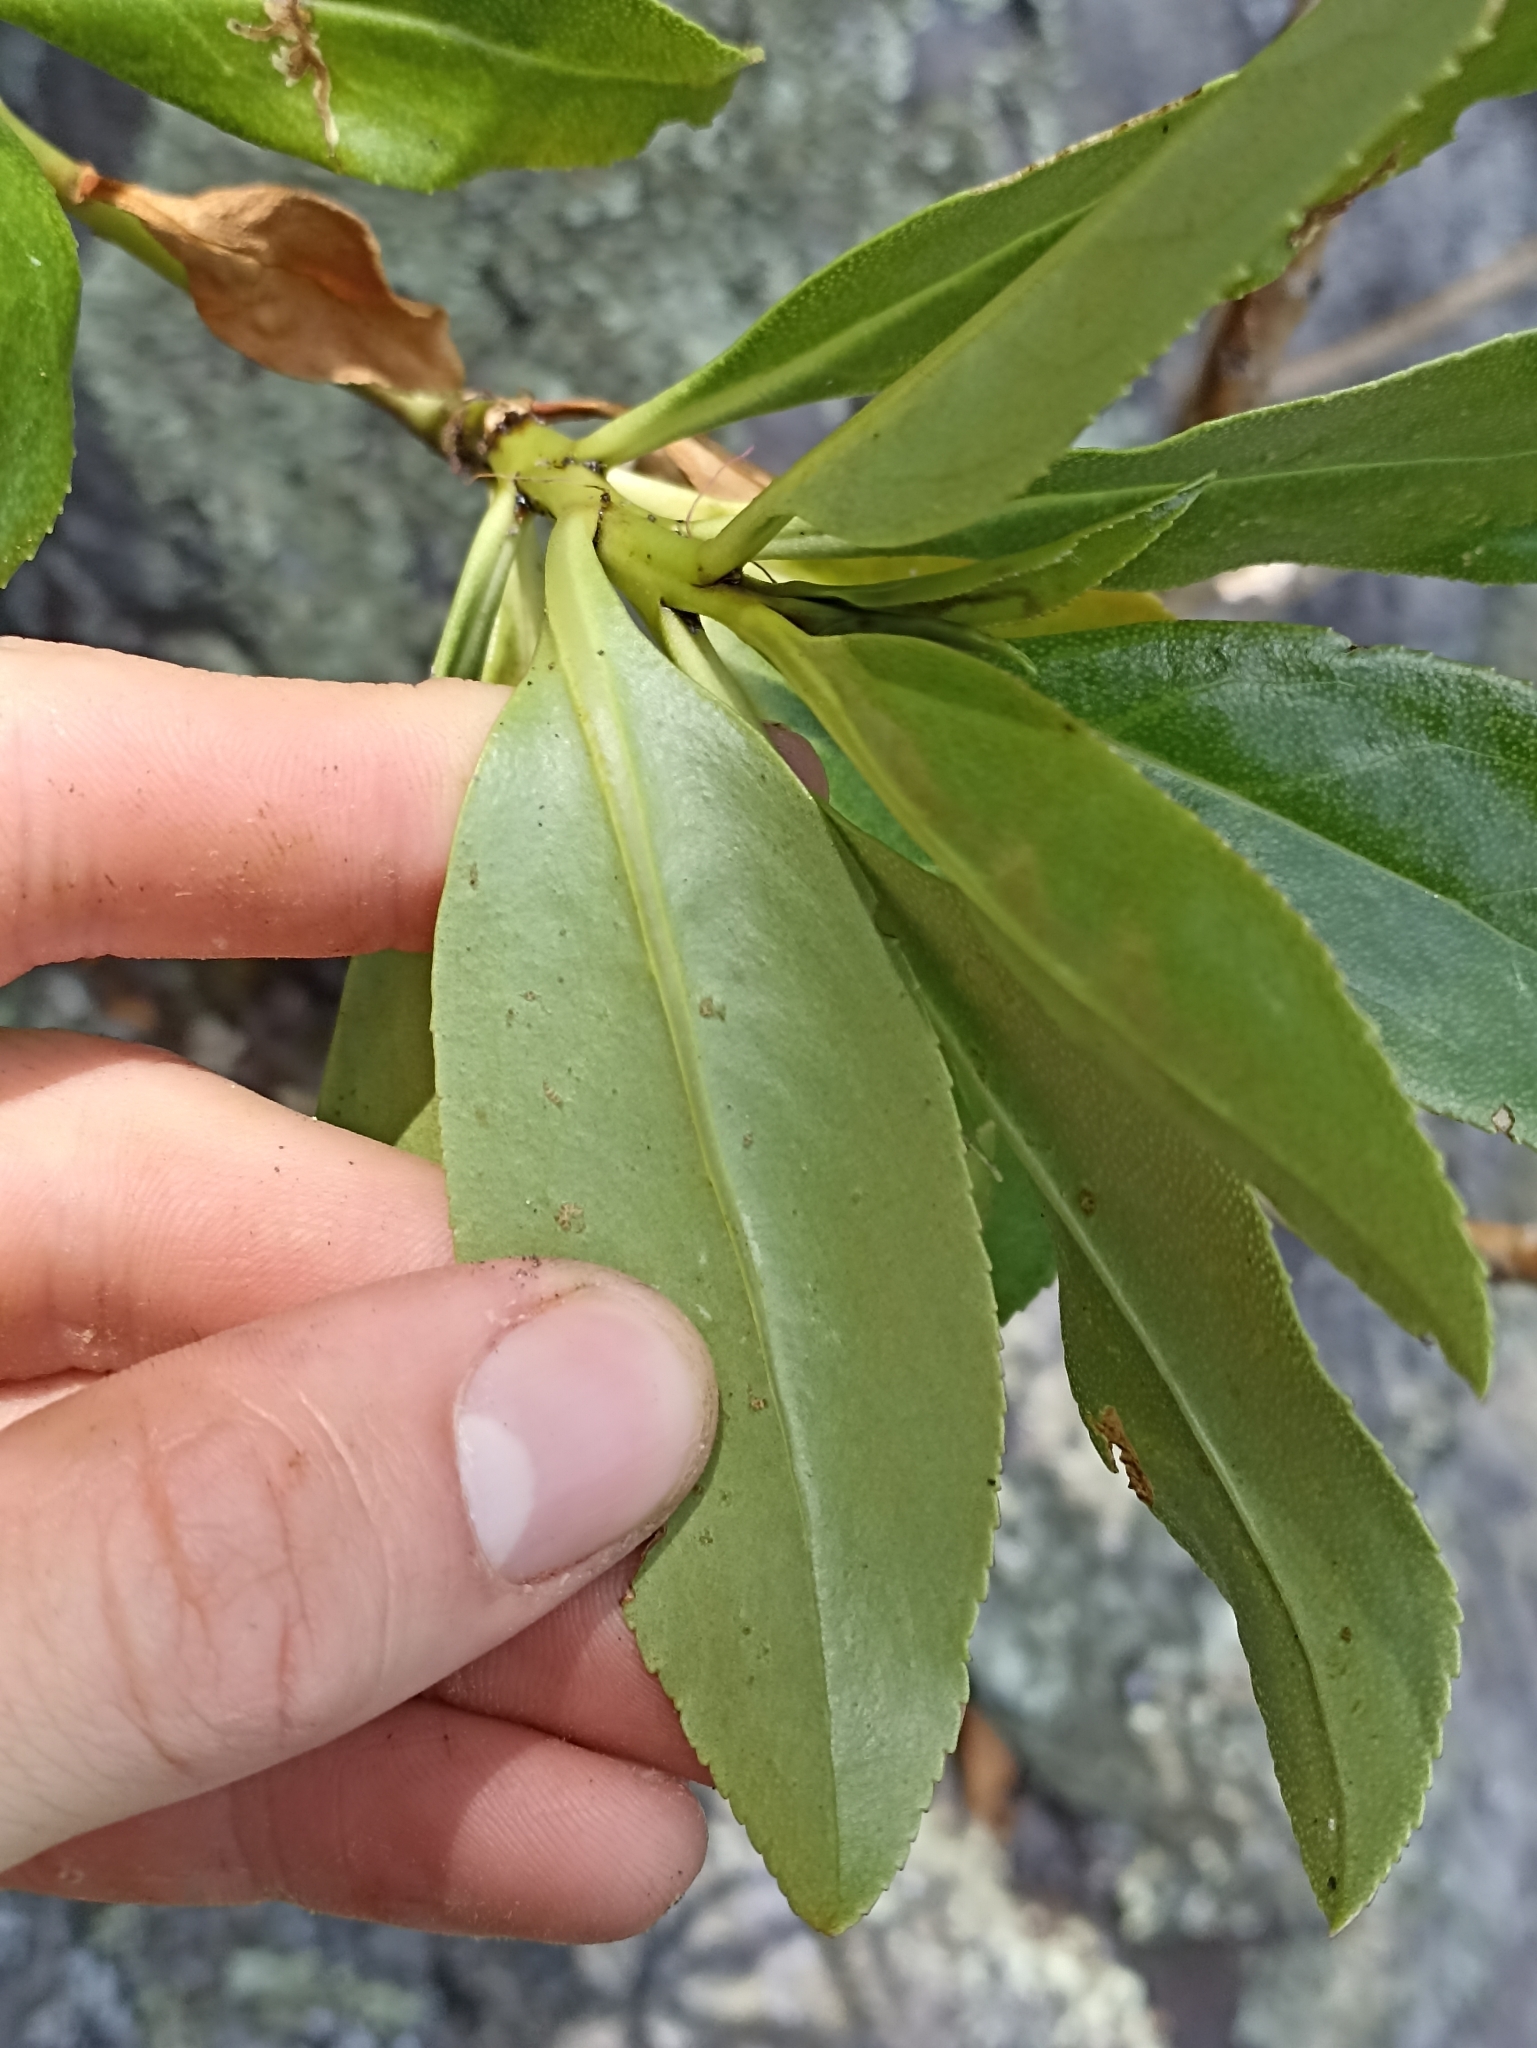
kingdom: Plantae
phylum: Tracheophyta
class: Magnoliopsida
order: Lamiales
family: Scrophulariaceae
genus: Myoporum
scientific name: Myoporum laetum
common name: Ngaio tree
